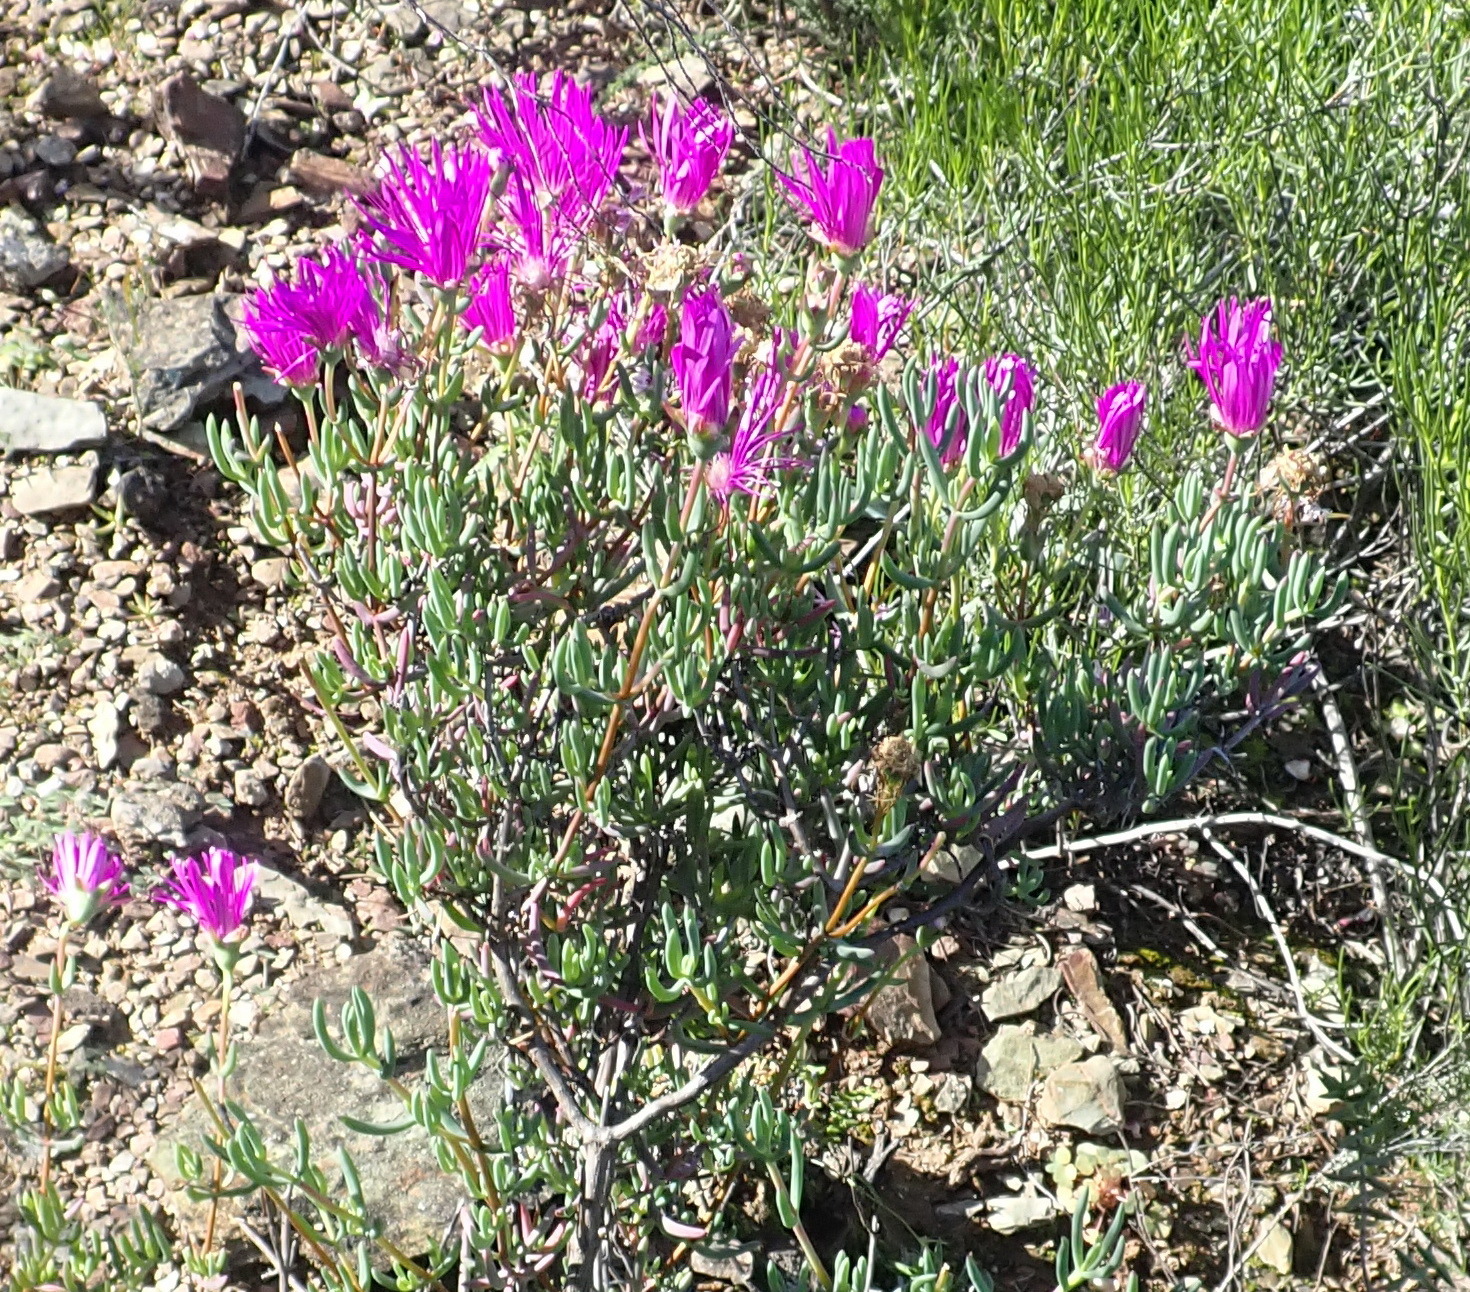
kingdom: Plantae
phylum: Tracheophyta
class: Magnoliopsida
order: Caryophyllales
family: Aizoaceae
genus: Lampranthus
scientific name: Lampranthus haworthii
